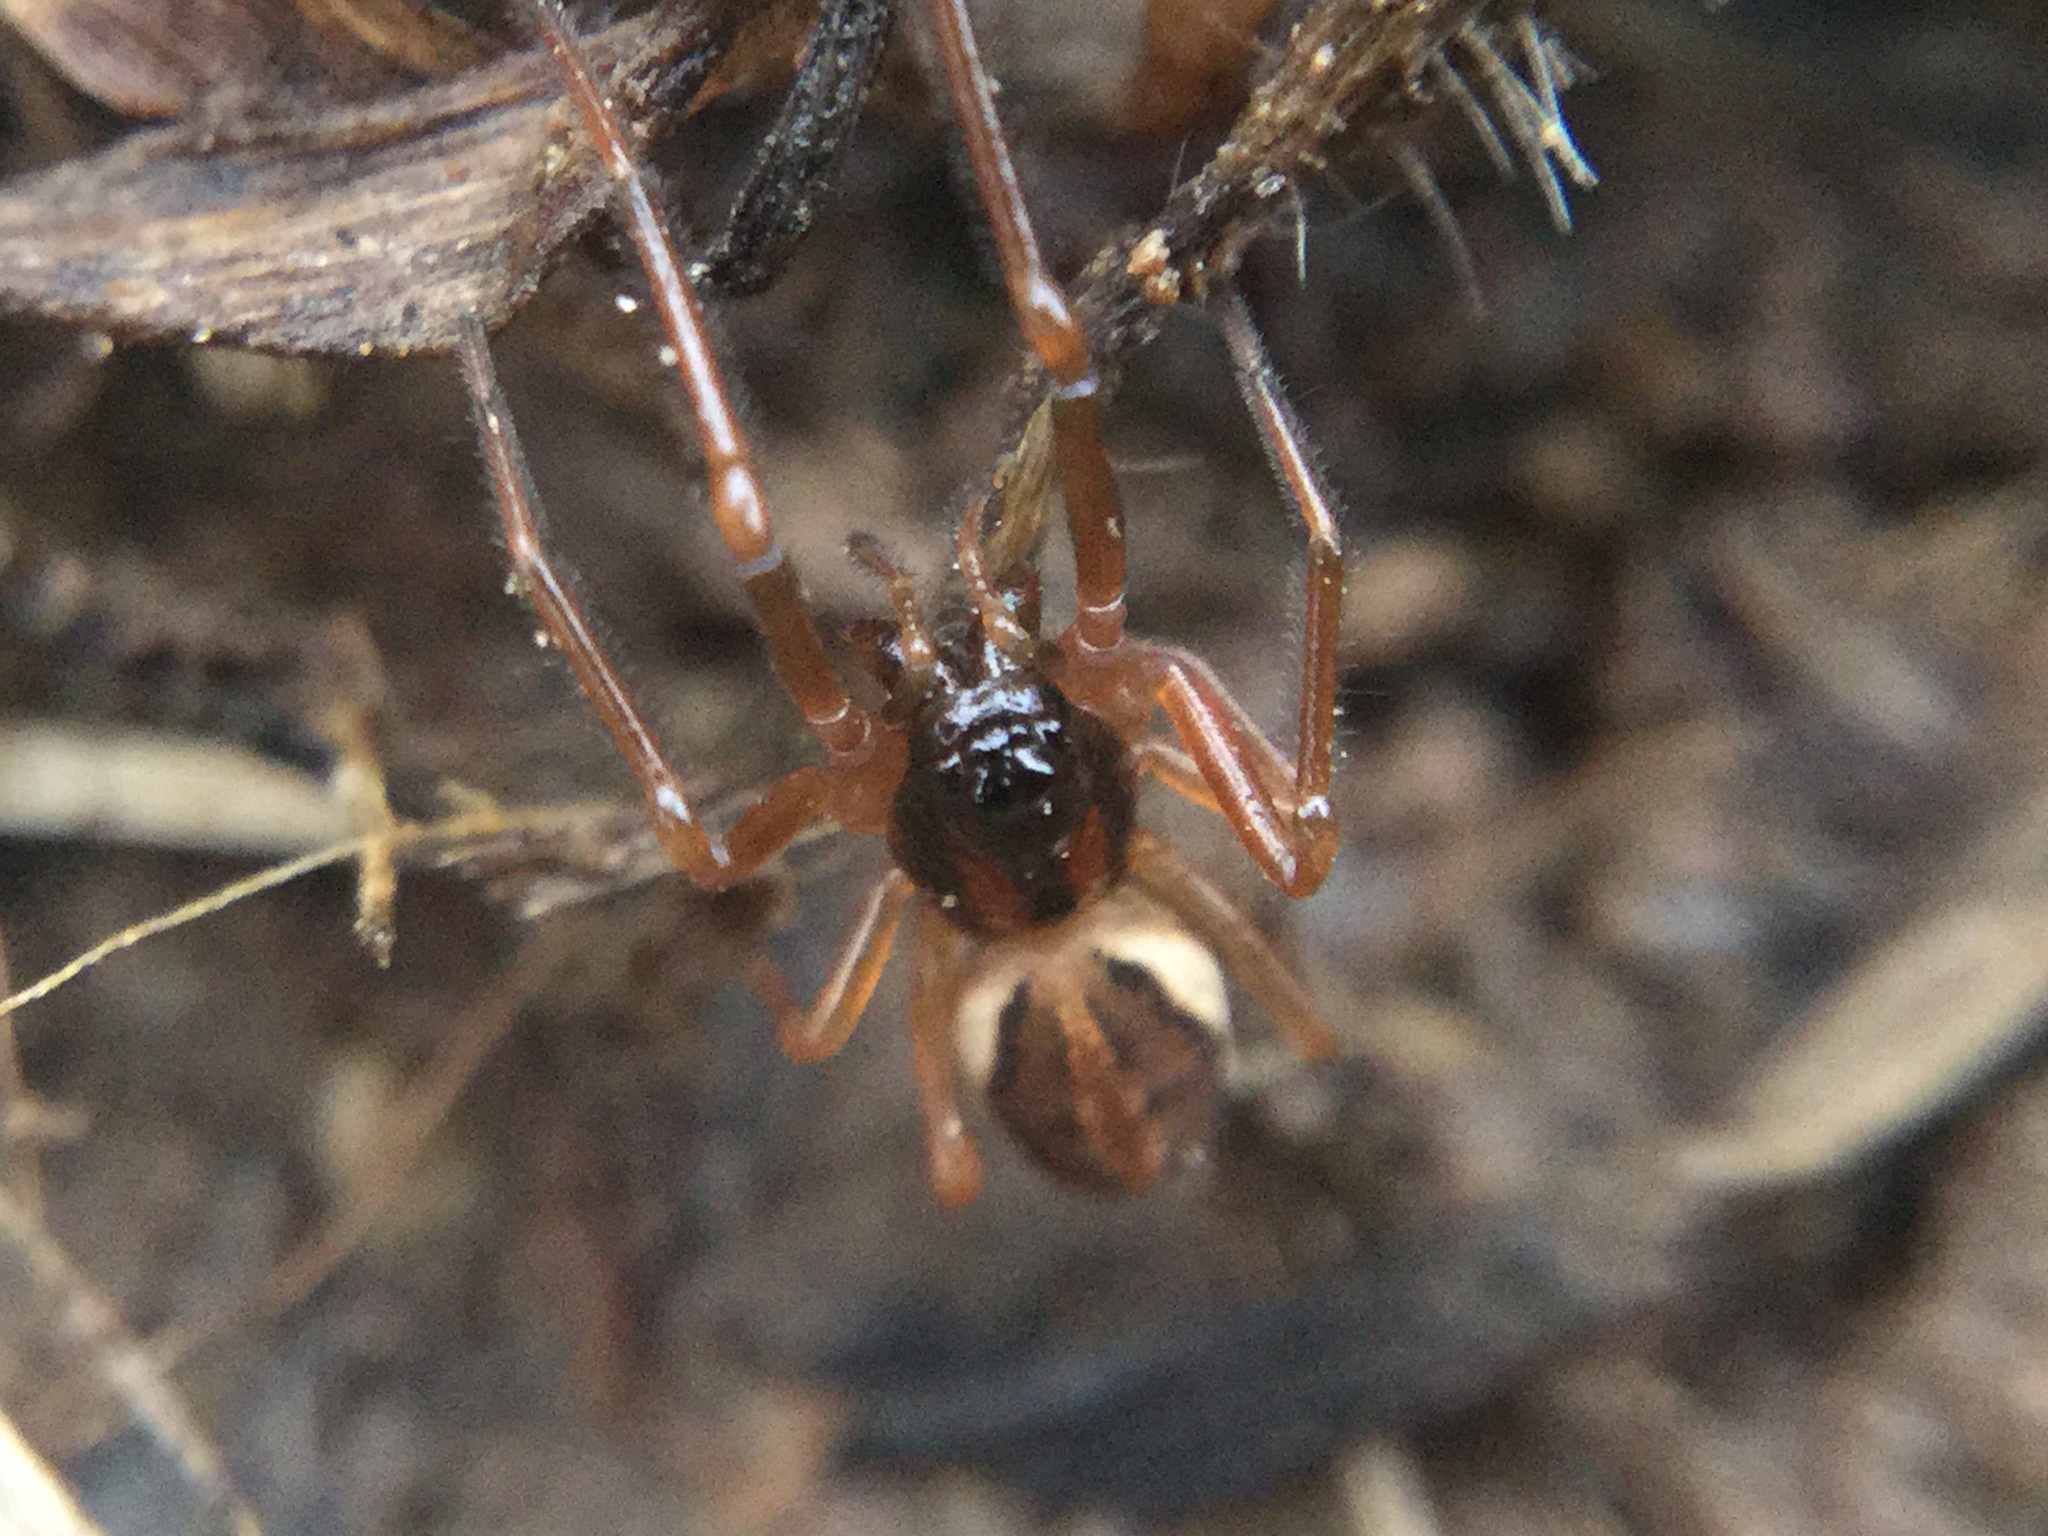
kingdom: Animalia
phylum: Arthropoda
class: Arachnida
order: Araneae
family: Tetragnathidae
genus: Pachygnatha
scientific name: Pachygnatha autumnalis
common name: Big-eyed thick-jawed spider
